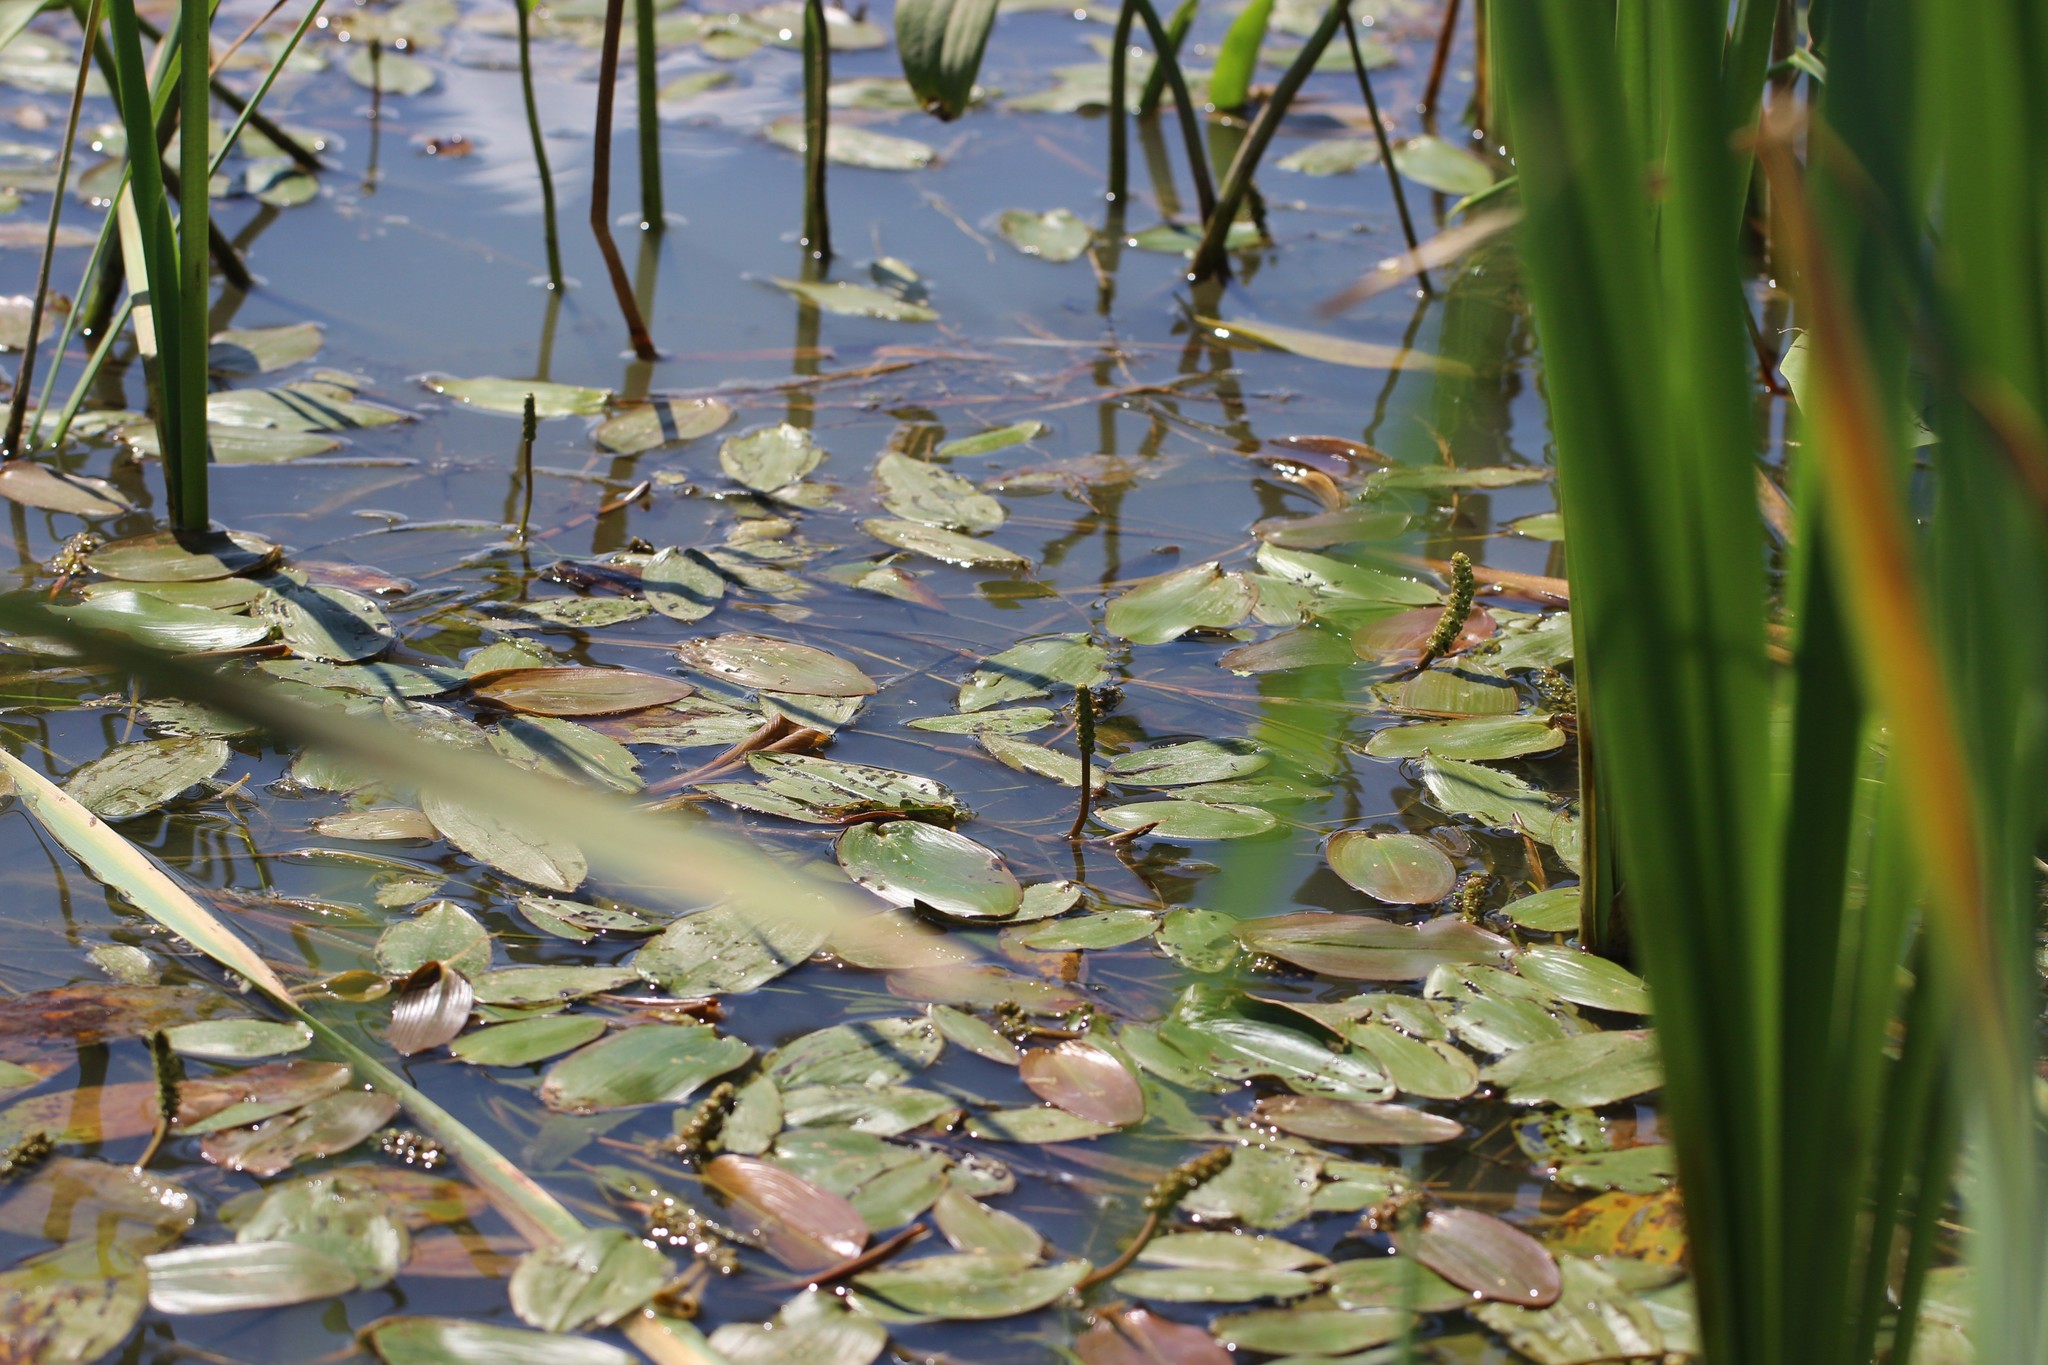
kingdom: Plantae
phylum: Tracheophyta
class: Liliopsida
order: Alismatales
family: Potamogetonaceae
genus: Potamogeton
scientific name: Potamogeton natans
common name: Broad-leaved pondweed
